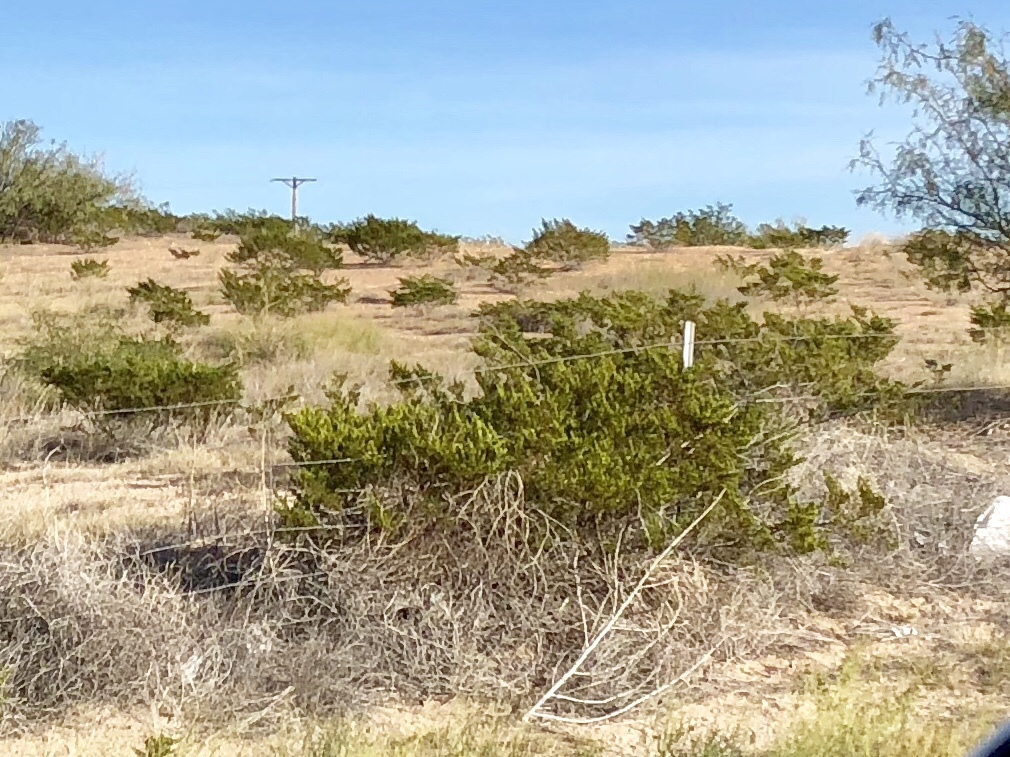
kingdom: Plantae
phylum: Tracheophyta
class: Magnoliopsida
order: Zygophyllales
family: Zygophyllaceae
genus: Larrea
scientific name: Larrea tridentata
